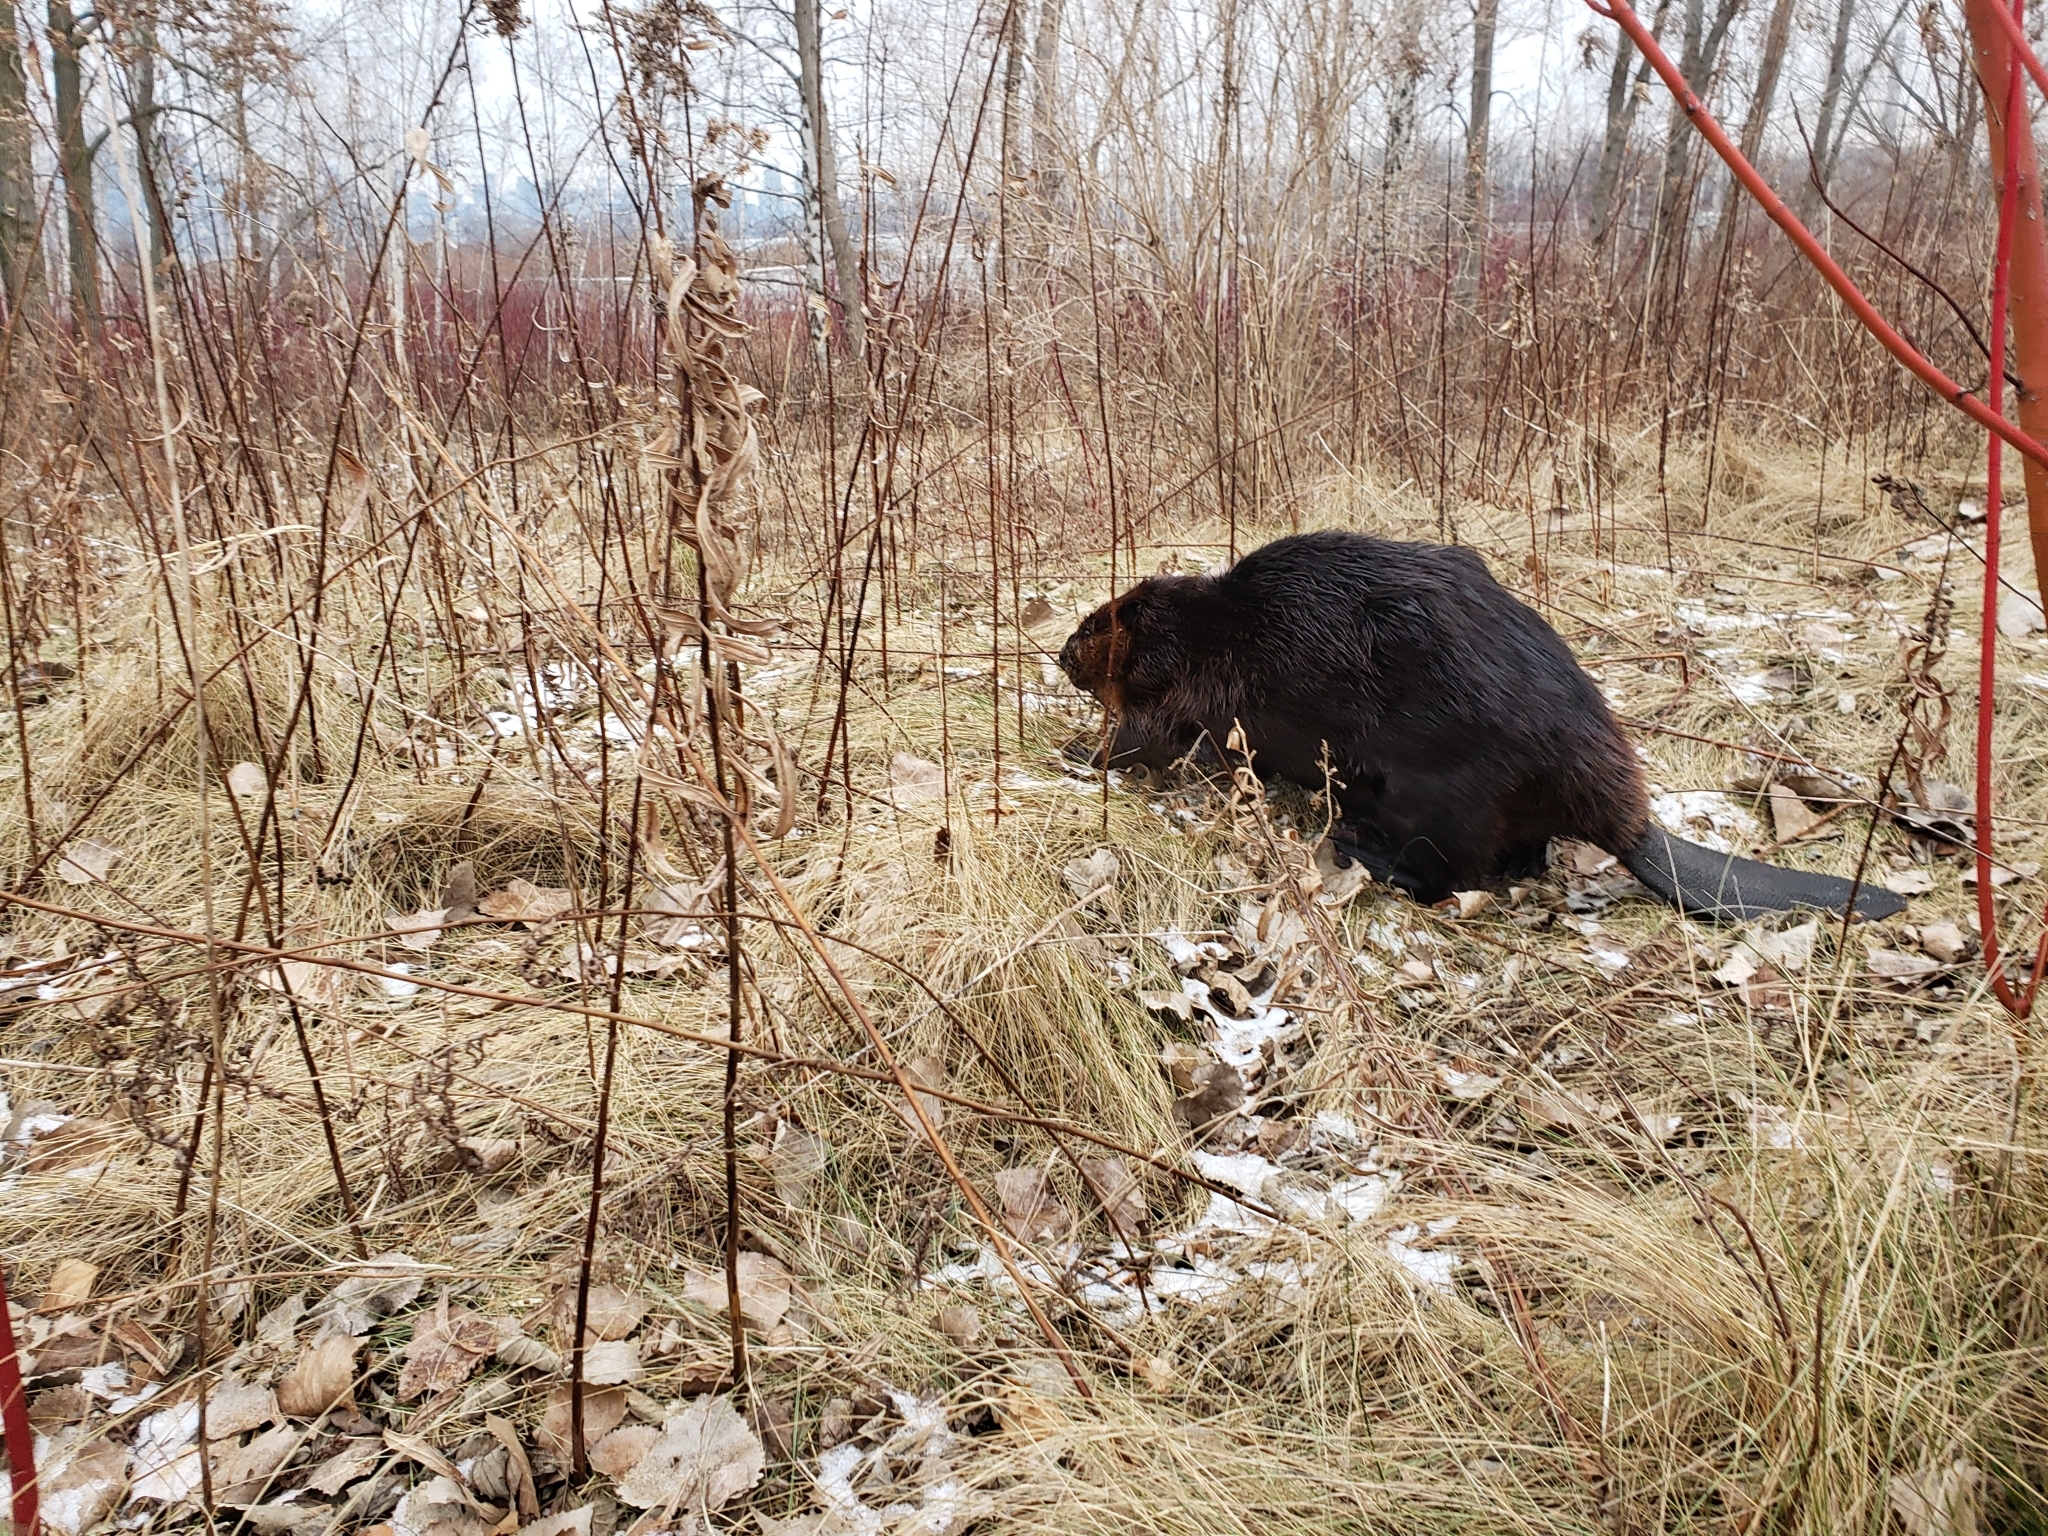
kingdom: Animalia
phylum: Chordata
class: Mammalia
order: Rodentia
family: Castoridae
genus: Castor
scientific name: Castor canadensis
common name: American beaver
